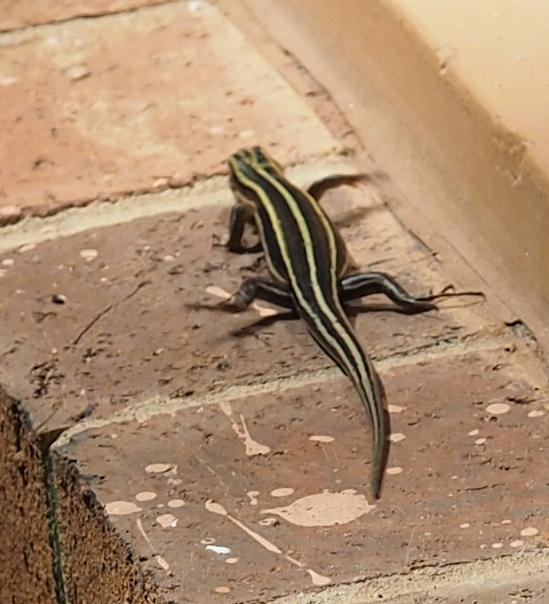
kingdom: Animalia
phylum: Chordata
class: Squamata
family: Scincidae
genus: Plestiodon
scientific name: Plestiodon fasciatus
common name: Five-lined skink
